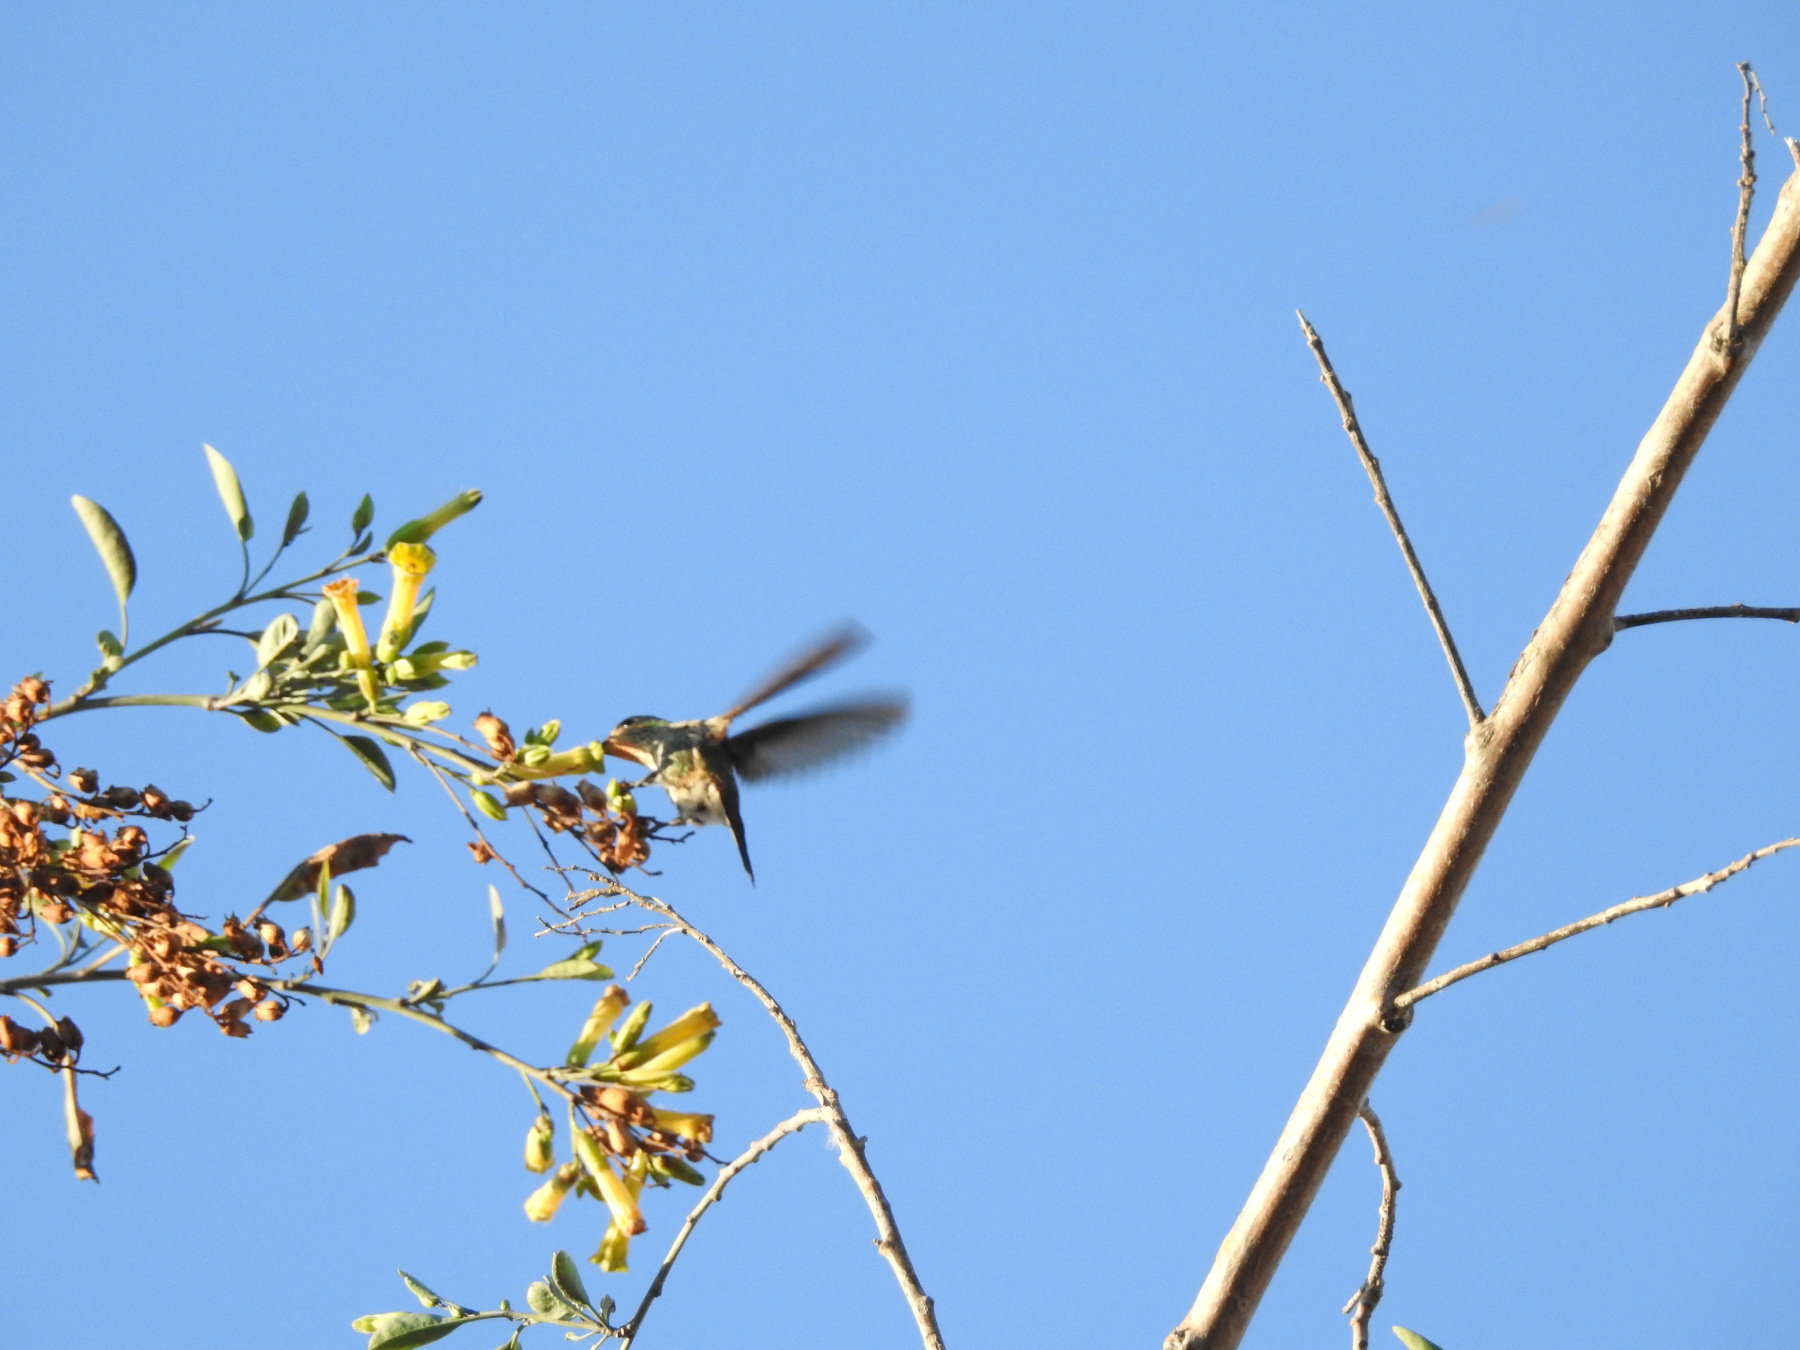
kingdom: Animalia
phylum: Chordata
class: Aves
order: Apodiformes
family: Trochilidae
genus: Chlorostilbon
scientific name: Chlorostilbon lucidus
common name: Glittering-bellied emerald
